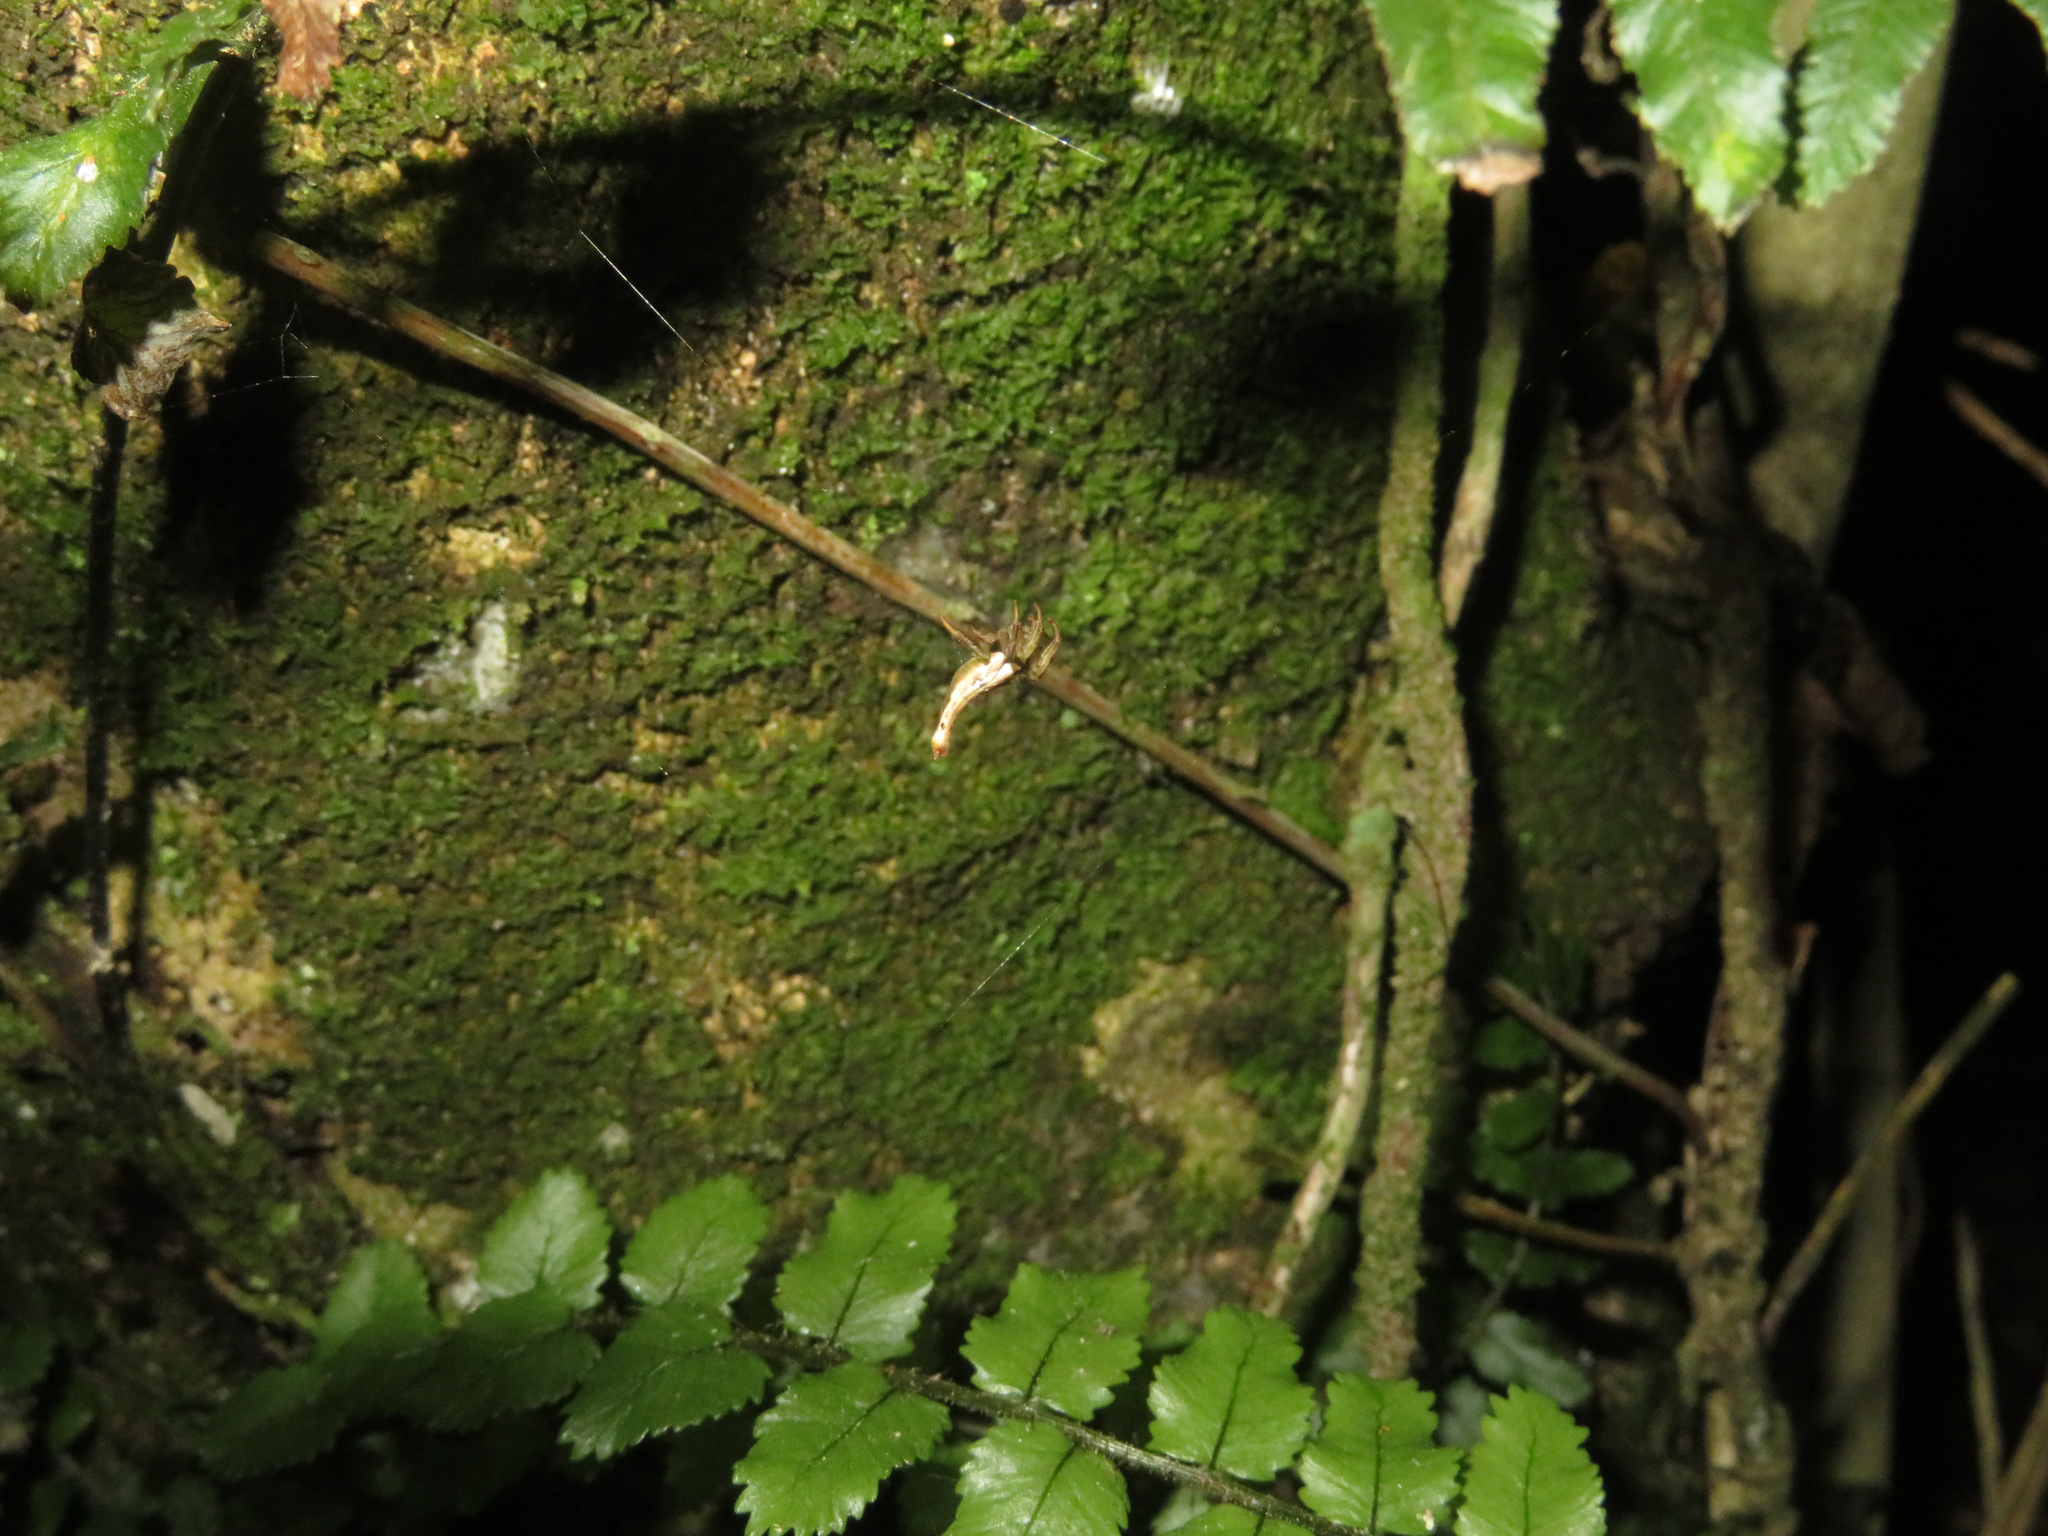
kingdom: Animalia
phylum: Arthropoda
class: Arachnida
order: Araneae
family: Araneidae
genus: Arachnura
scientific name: Arachnura feredayi
